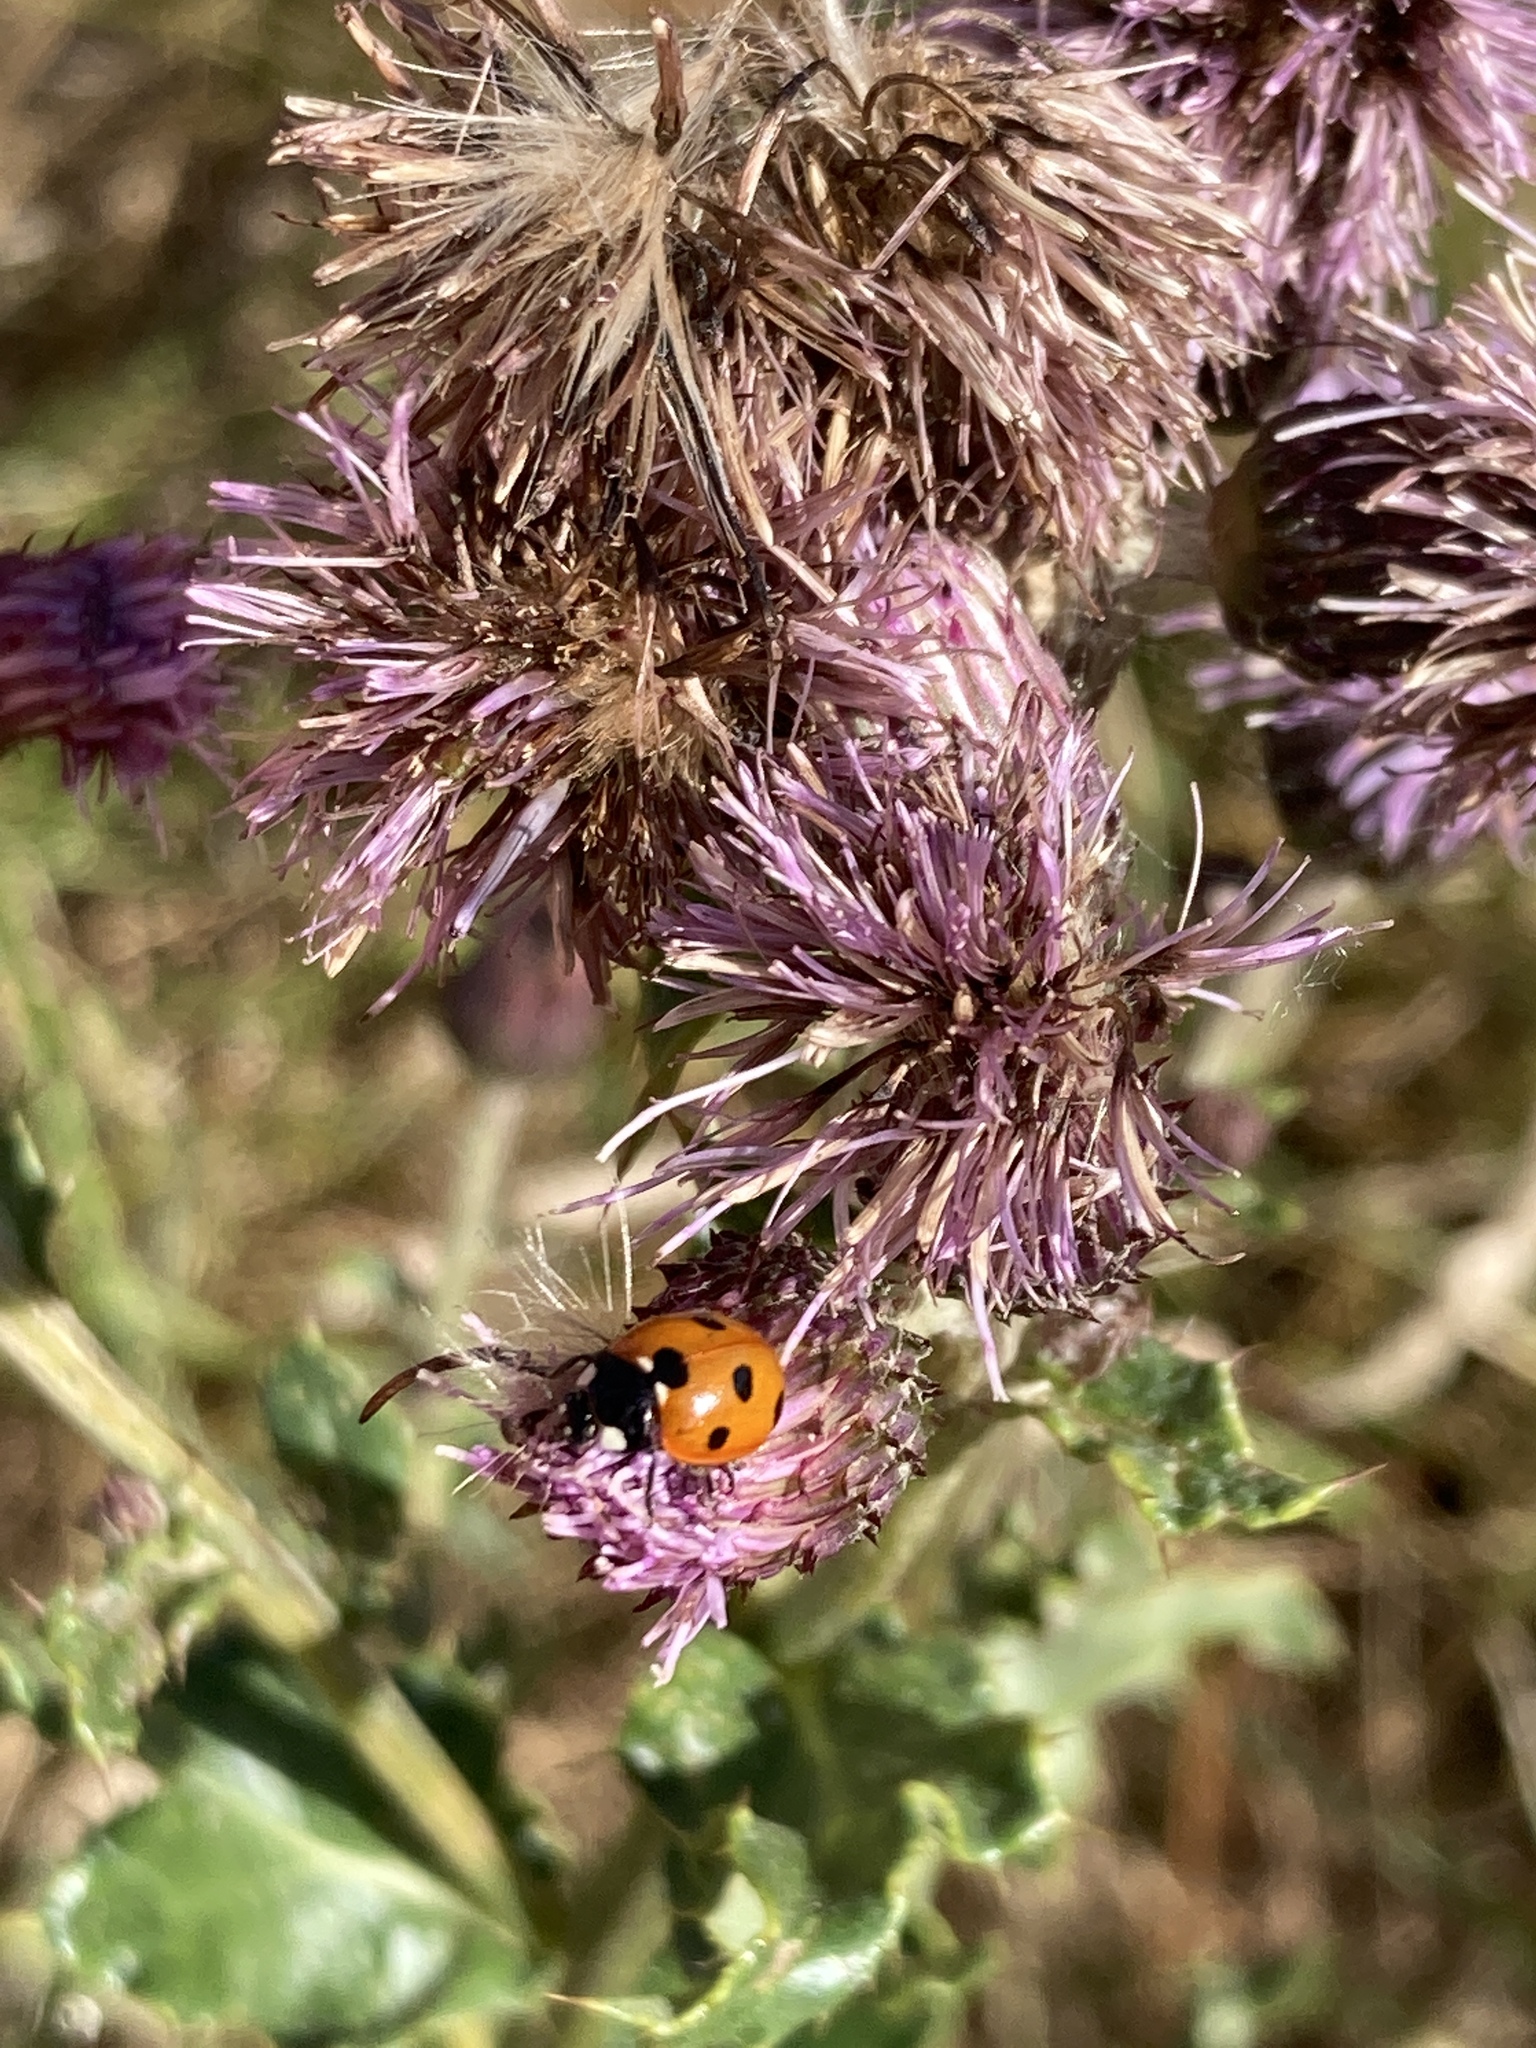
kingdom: Animalia
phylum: Arthropoda
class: Insecta
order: Coleoptera
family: Coccinellidae
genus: Coccinella
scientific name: Coccinella septempunctata
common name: Sevenspotted lady beetle
